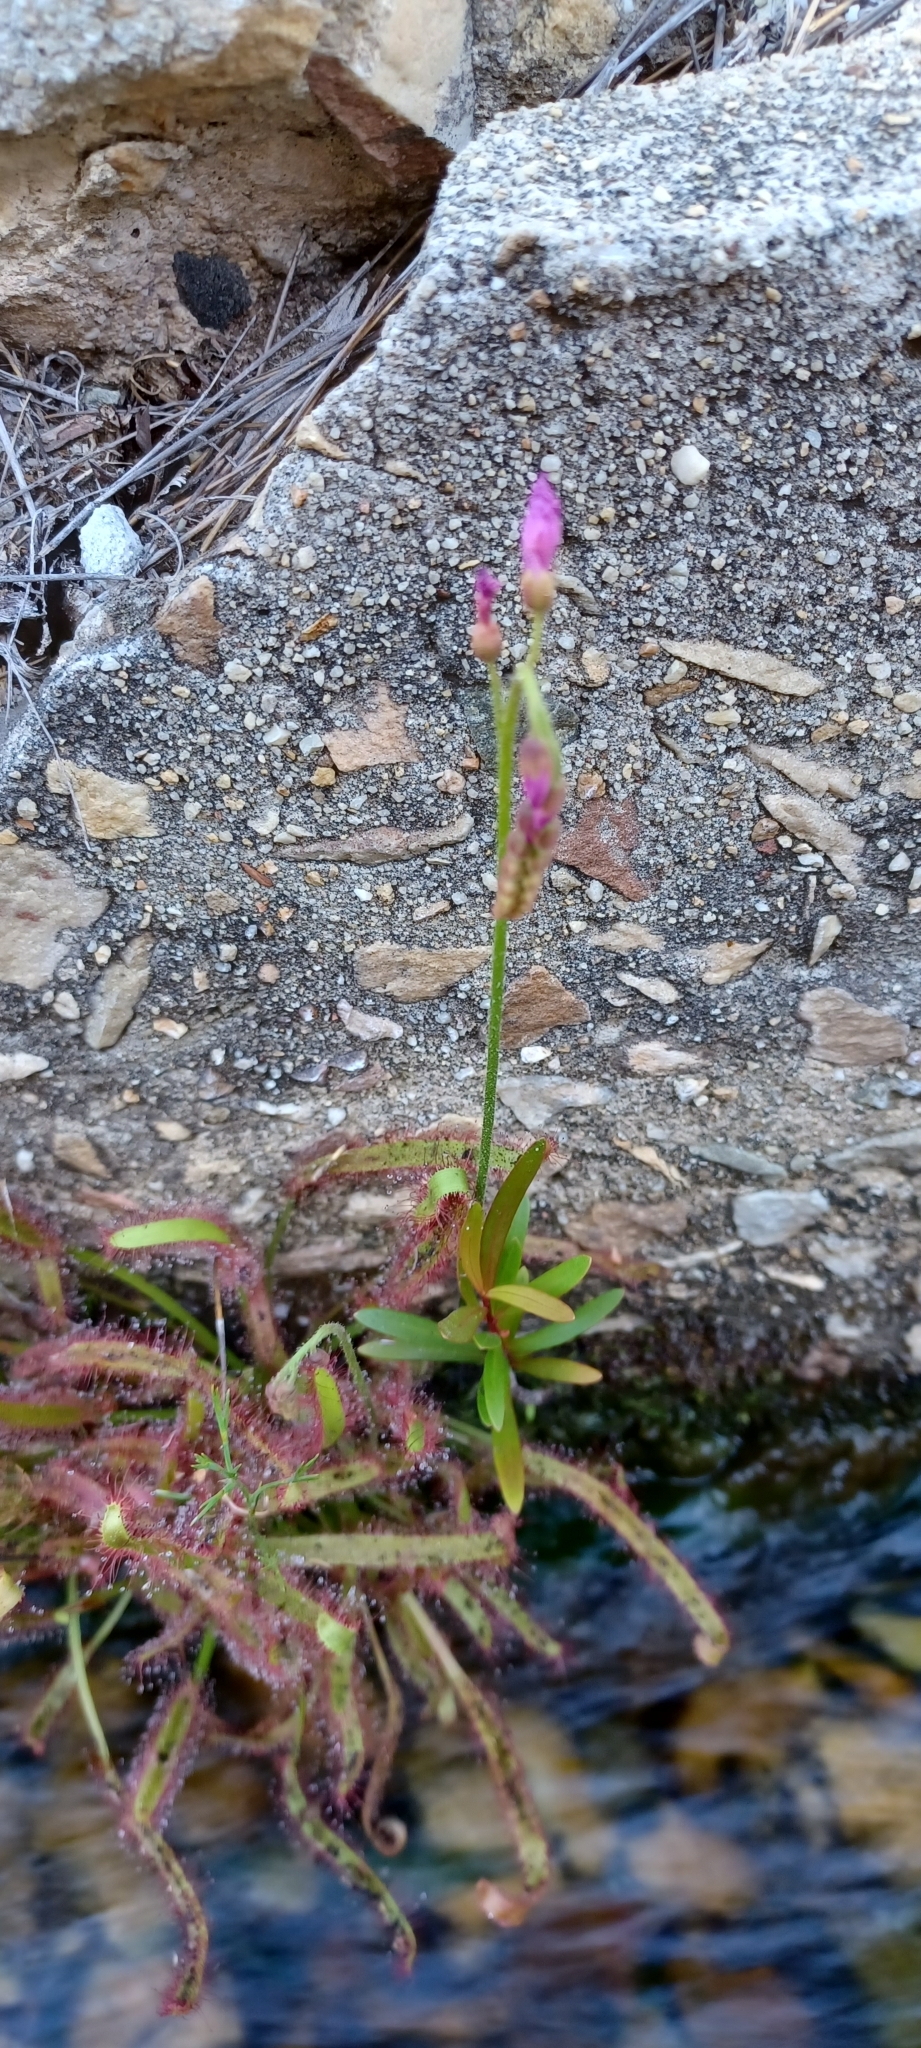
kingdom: Plantae
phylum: Tracheophyta
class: Magnoliopsida
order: Caryophyllales
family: Droseraceae
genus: Drosera
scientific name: Drosera capensis
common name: Cape sundew
